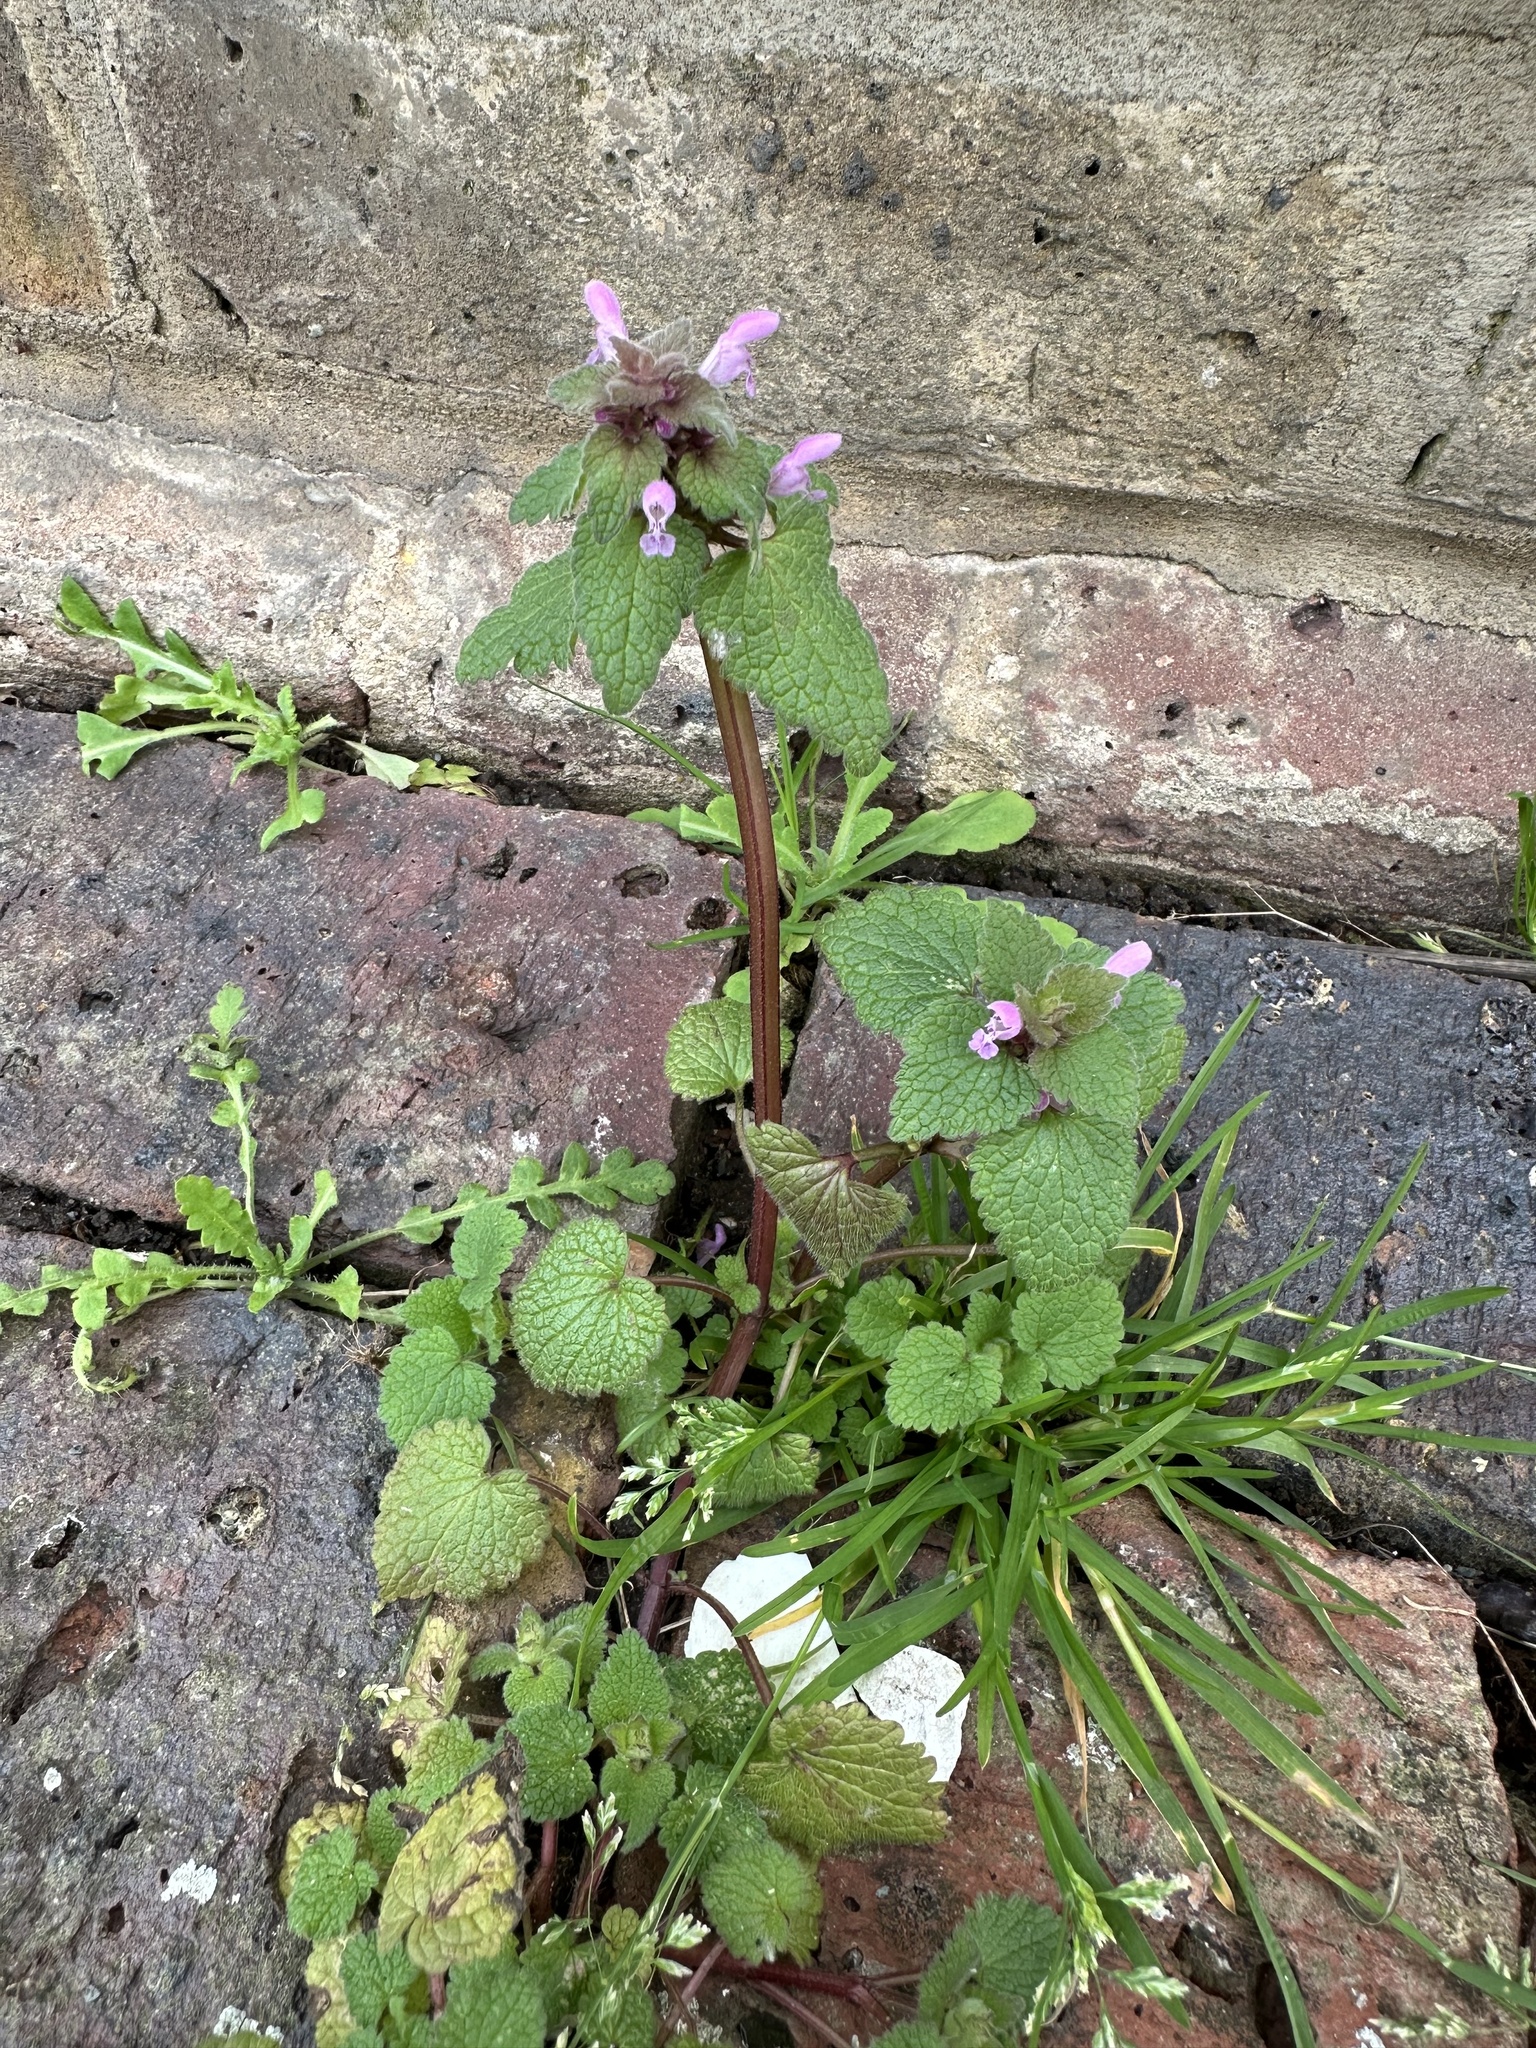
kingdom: Plantae
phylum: Tracheophyta
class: Magnoliopsida
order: Lamiales
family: Lamiaceae
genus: Lamium
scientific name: Lamium purpureum
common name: Red dead-nettle
